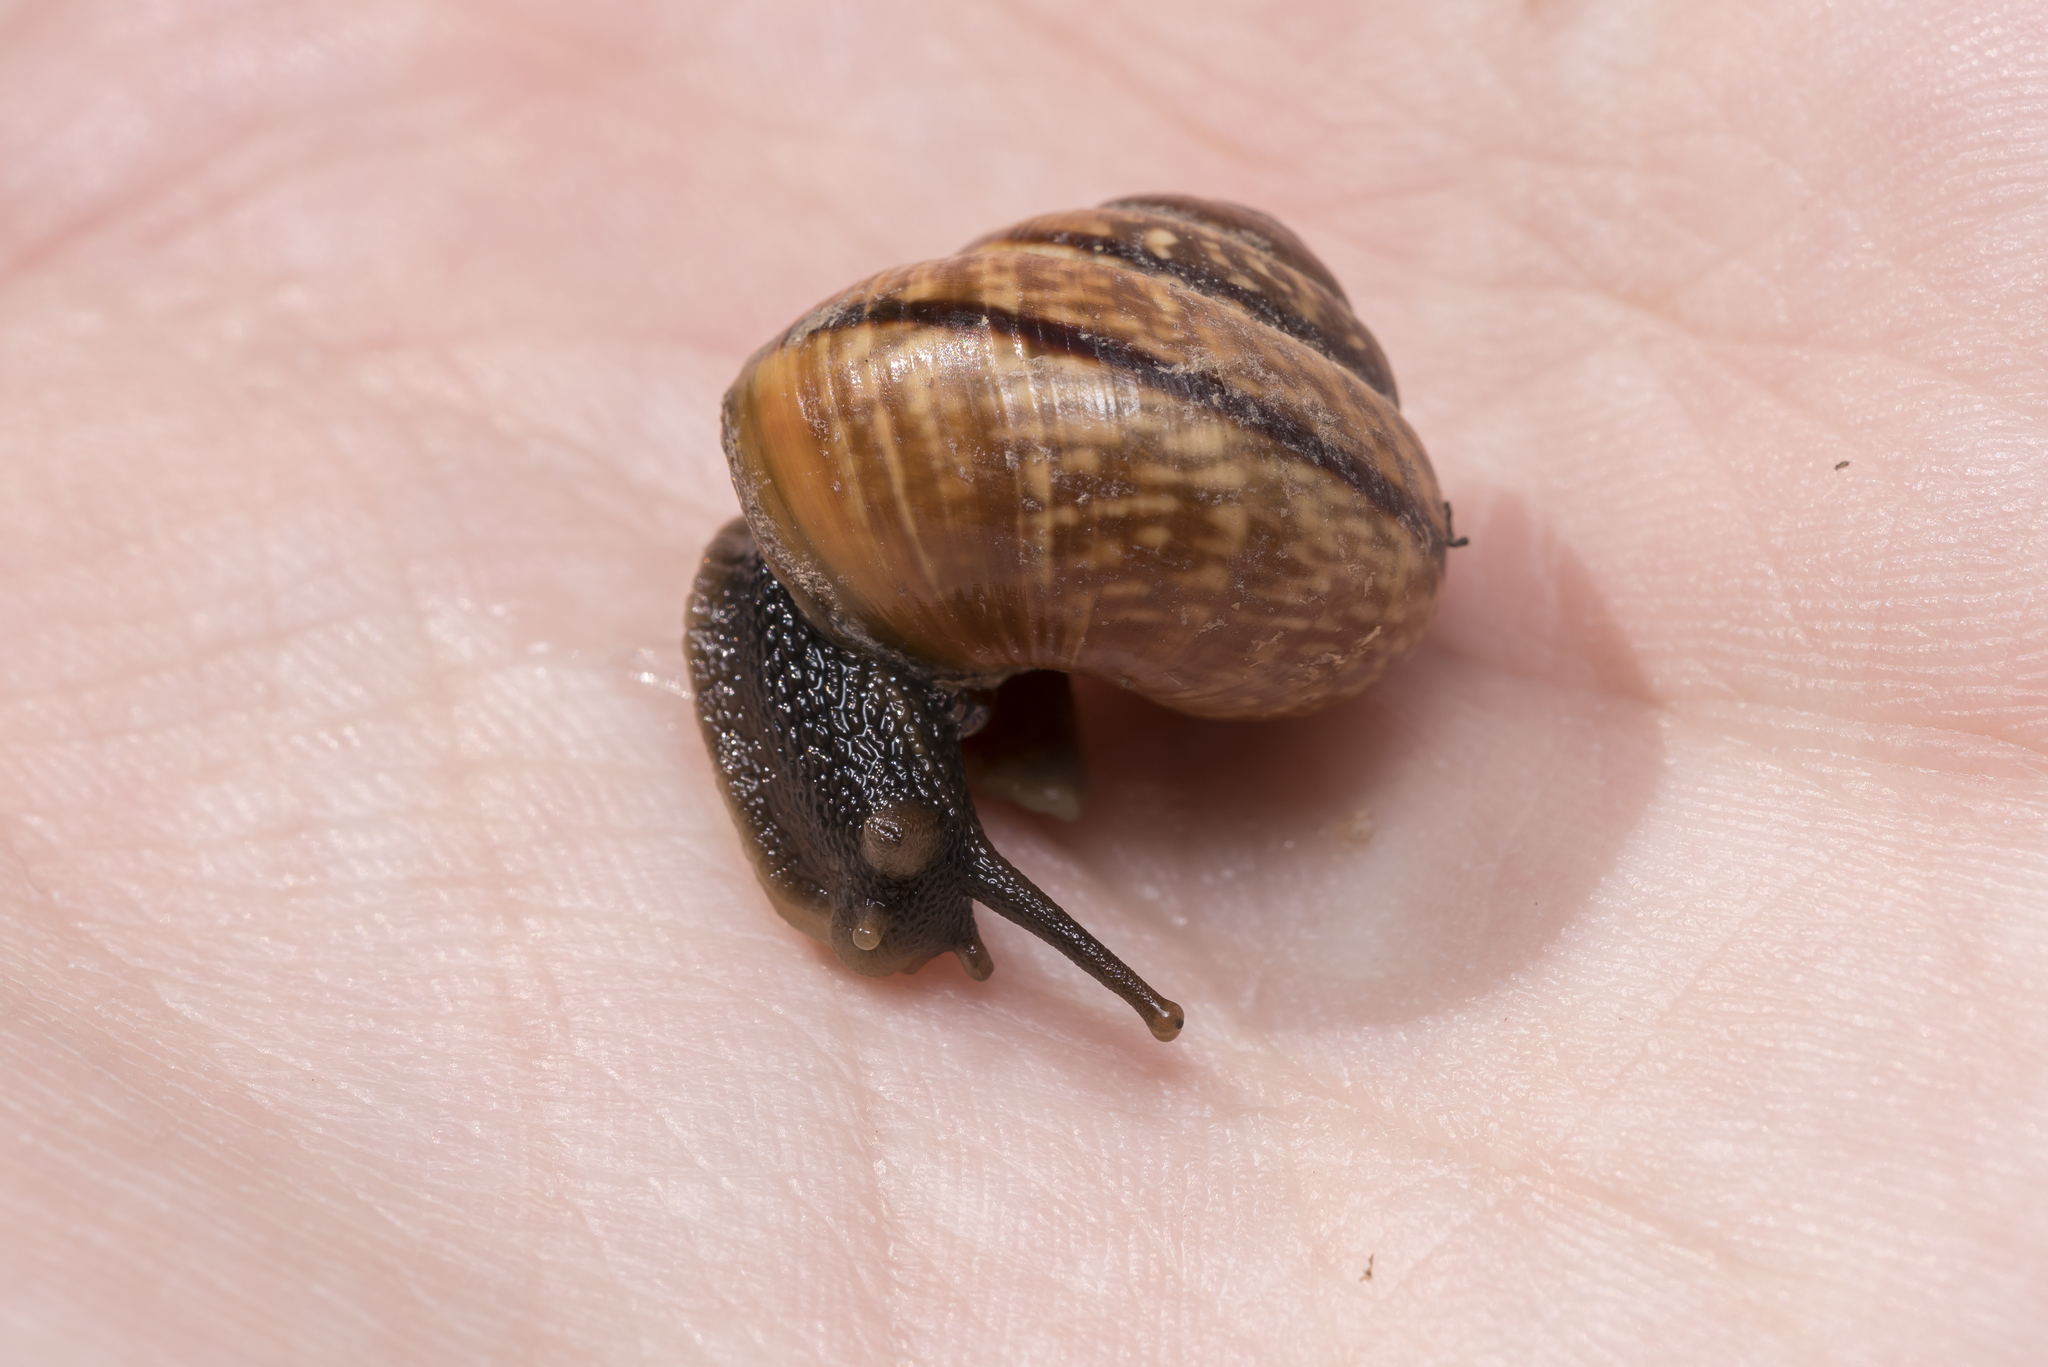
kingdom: Animalia
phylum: Mollusca
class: Gastropoda
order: Stylommatophora
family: Helicidae
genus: Arianta
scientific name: Arianta arbustorum
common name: Copse snail
